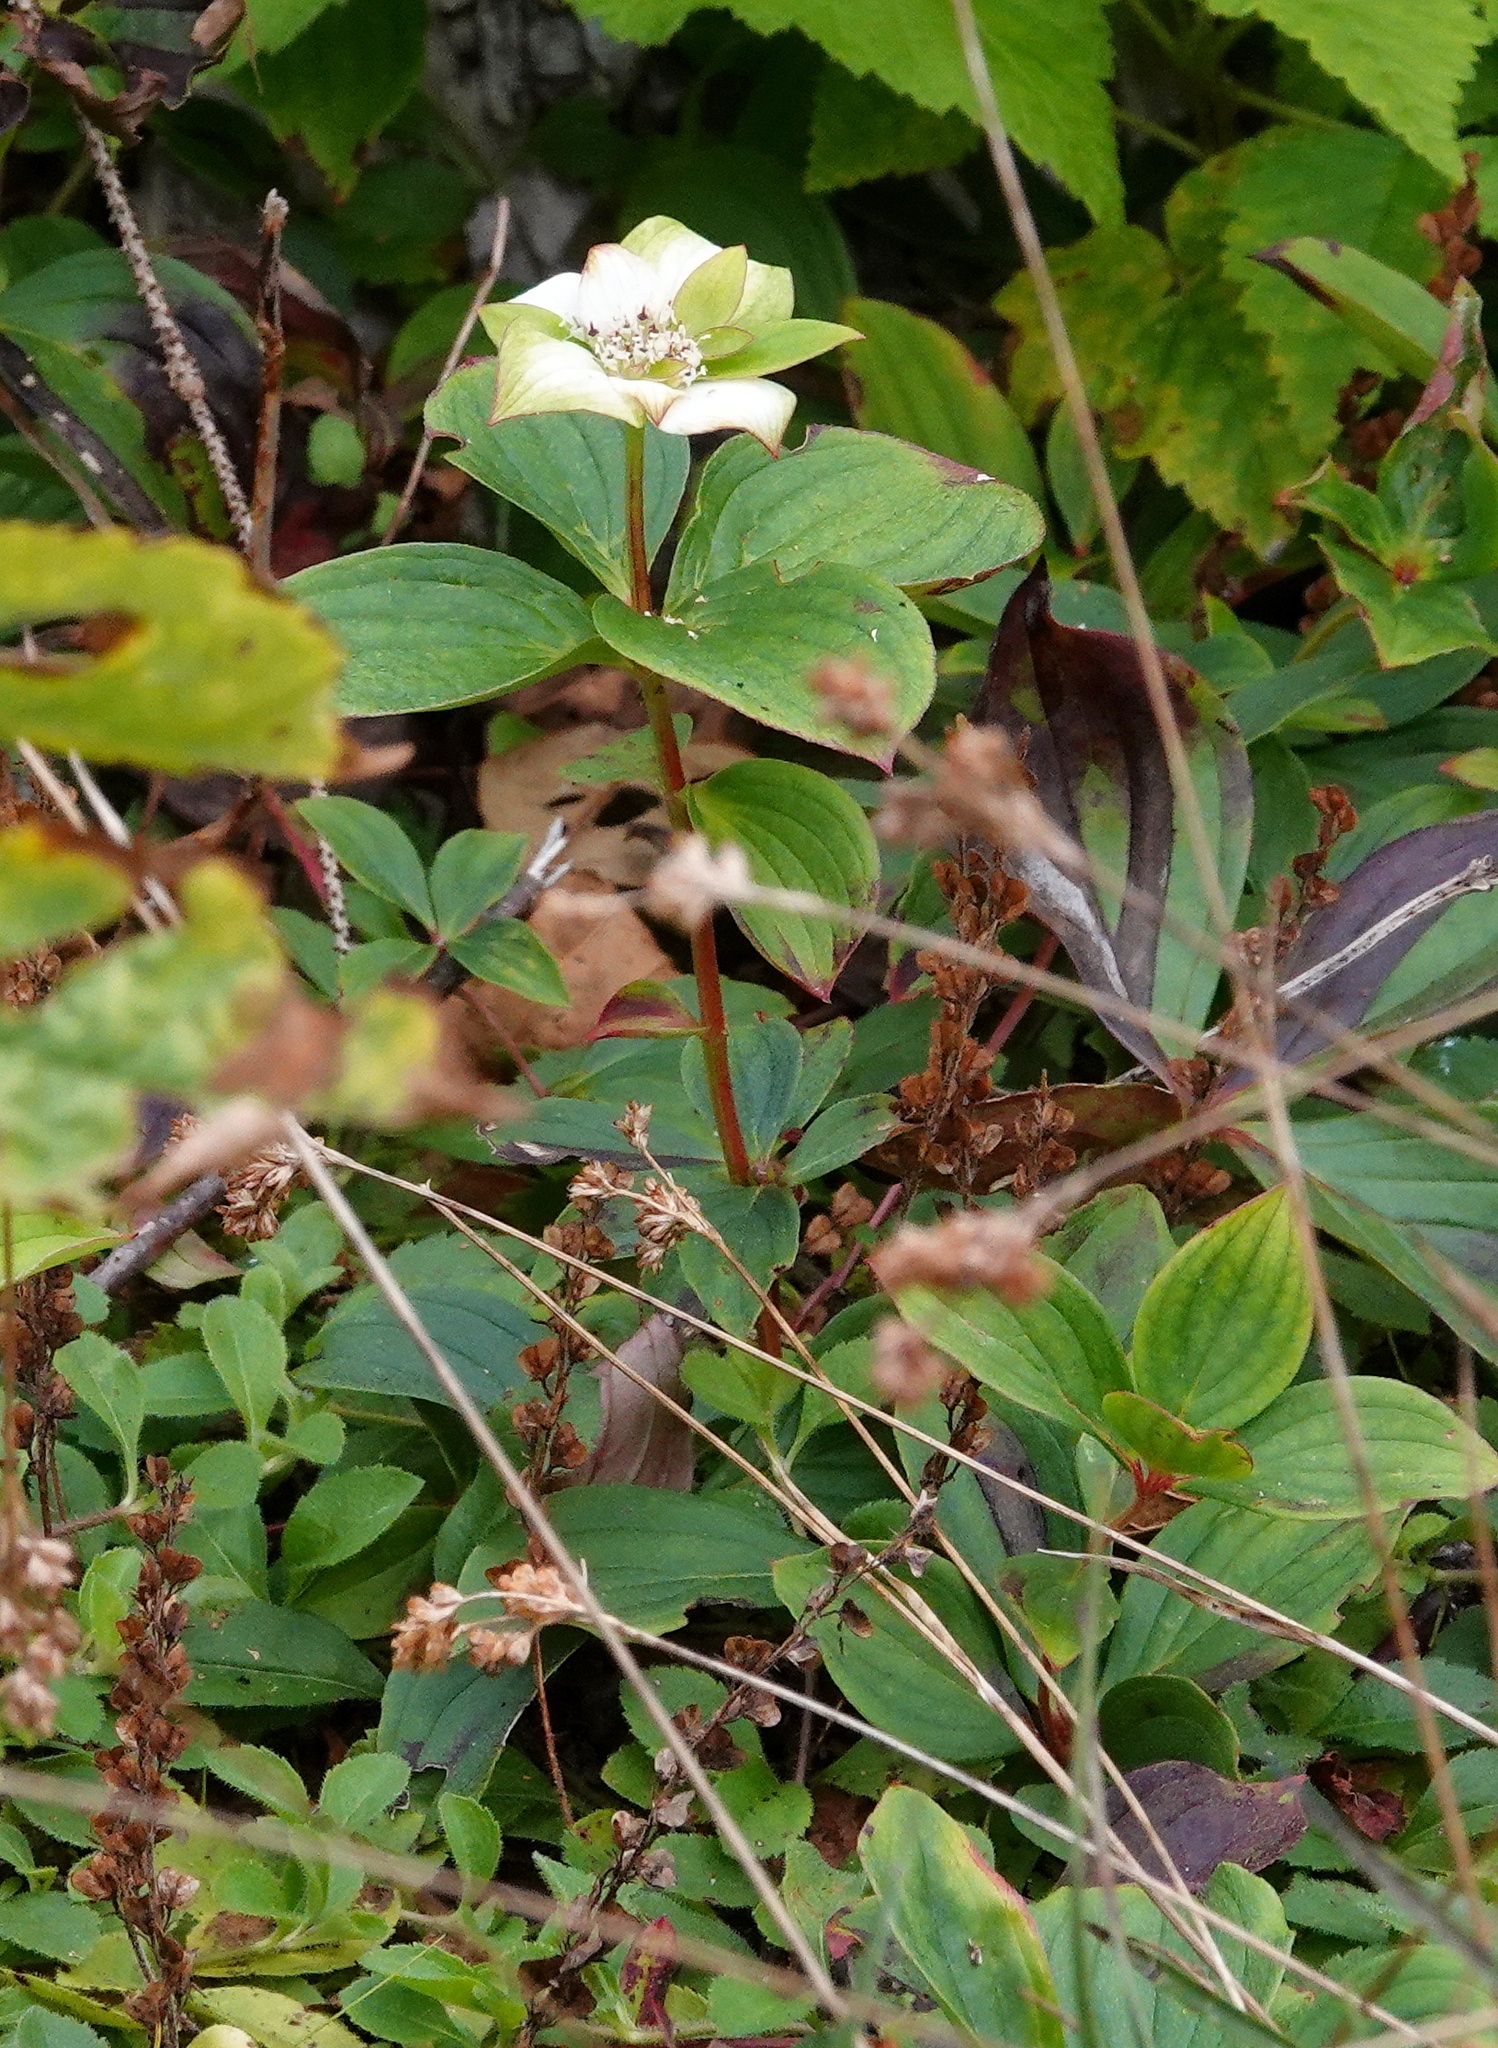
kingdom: Plantae
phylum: Tracheophyta
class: Magnoliopsida
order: Cornales
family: Cornaceae
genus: Cornus
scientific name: Cornus canadensis
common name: Creeping dogwood
